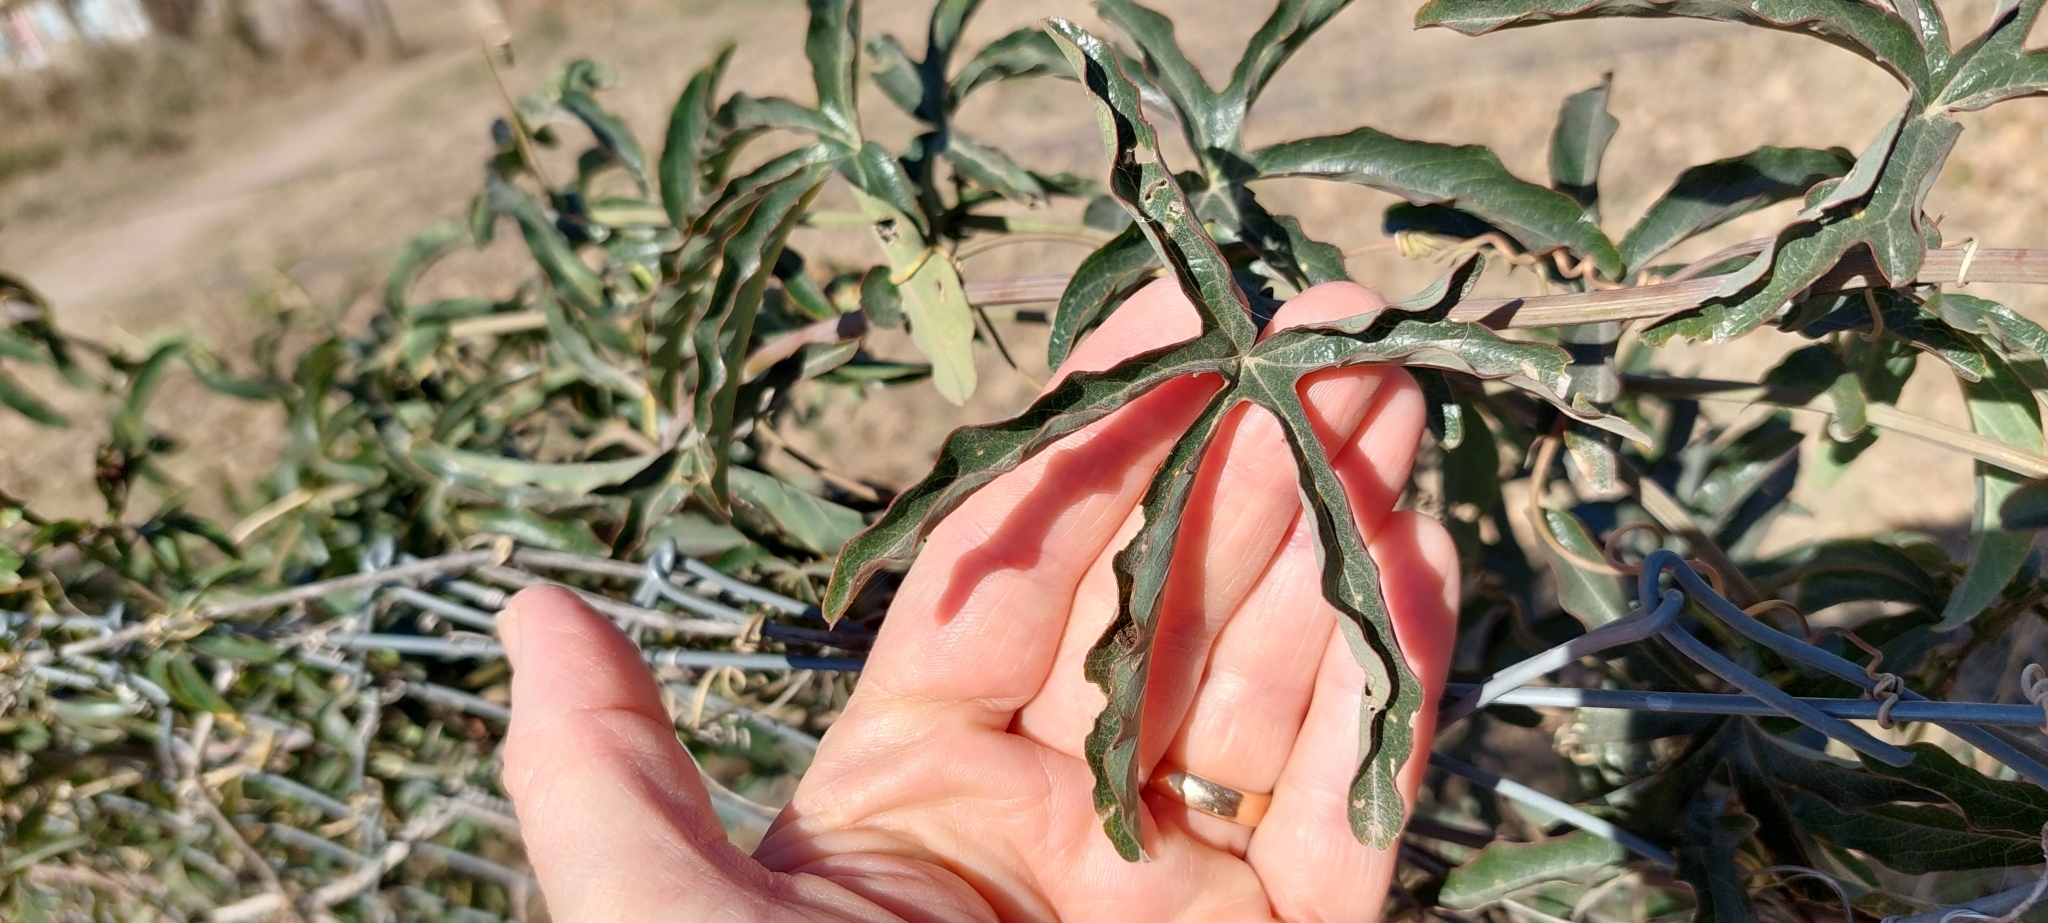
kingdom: Plantae
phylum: Tracheophyta
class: Magnoliopsida
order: Malpighiales
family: Passifloraceae
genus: Passiflora
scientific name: Passiflora caerulea
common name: Blue passionflower
